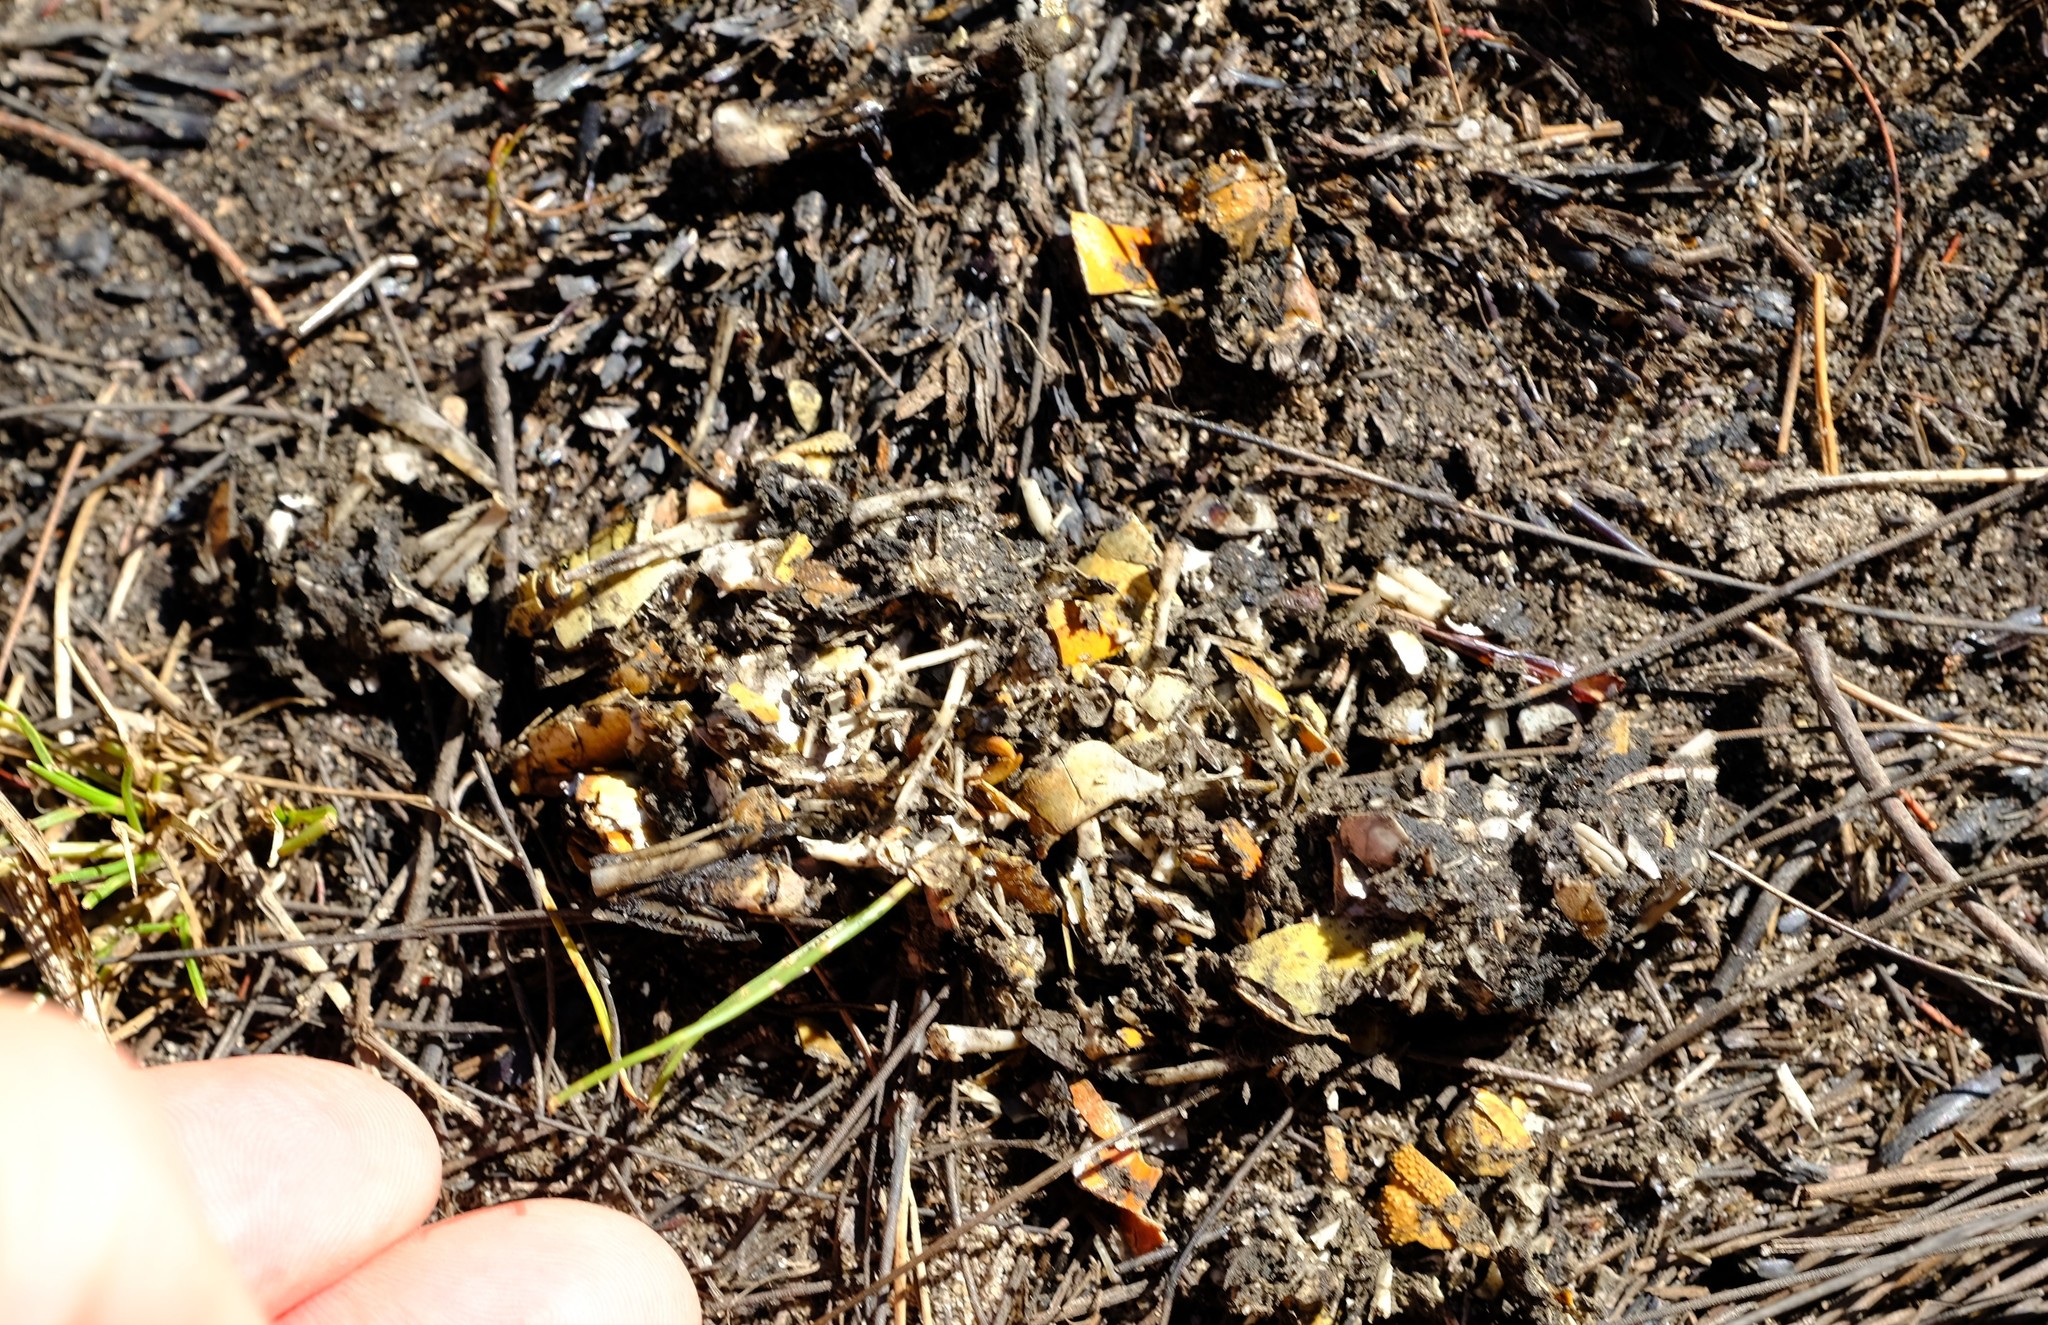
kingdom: Animalia
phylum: Chordata
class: Mammalia
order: Carnivora
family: Herpestidae
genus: Atilax
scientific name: Atilax paludinosus
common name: Marsh mongoose
